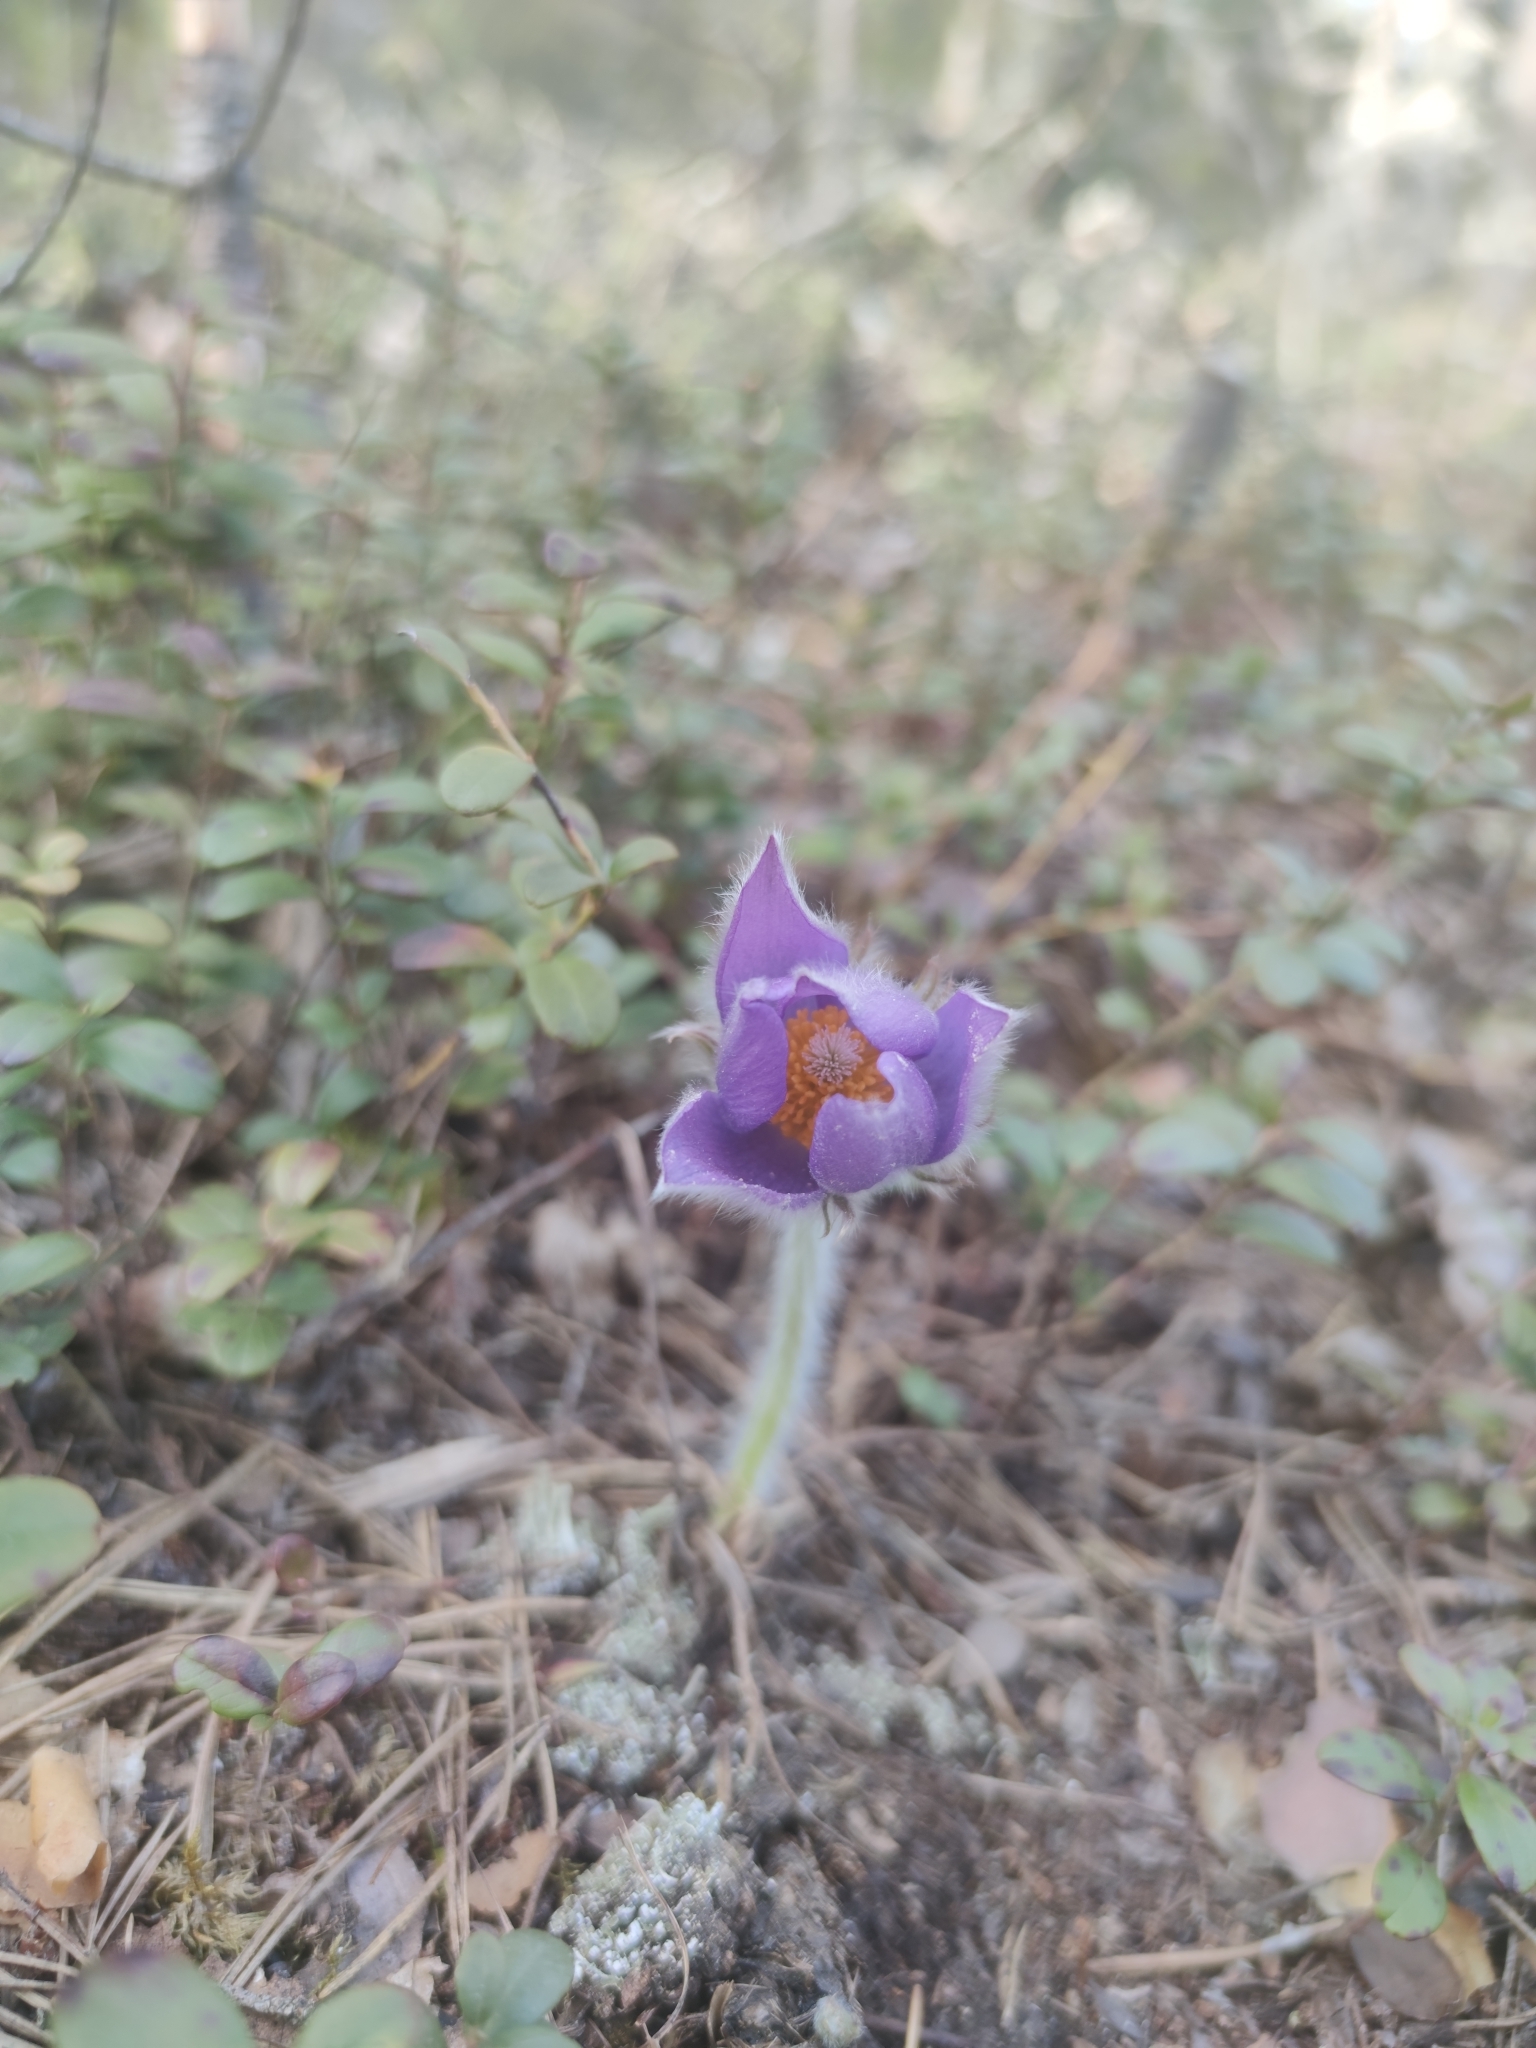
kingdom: Plantae
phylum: Tracheophyta
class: Magnoliopsida
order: Ranunculales
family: Ranunculaceae
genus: Pulsatilla
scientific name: Pulsatilla patens
